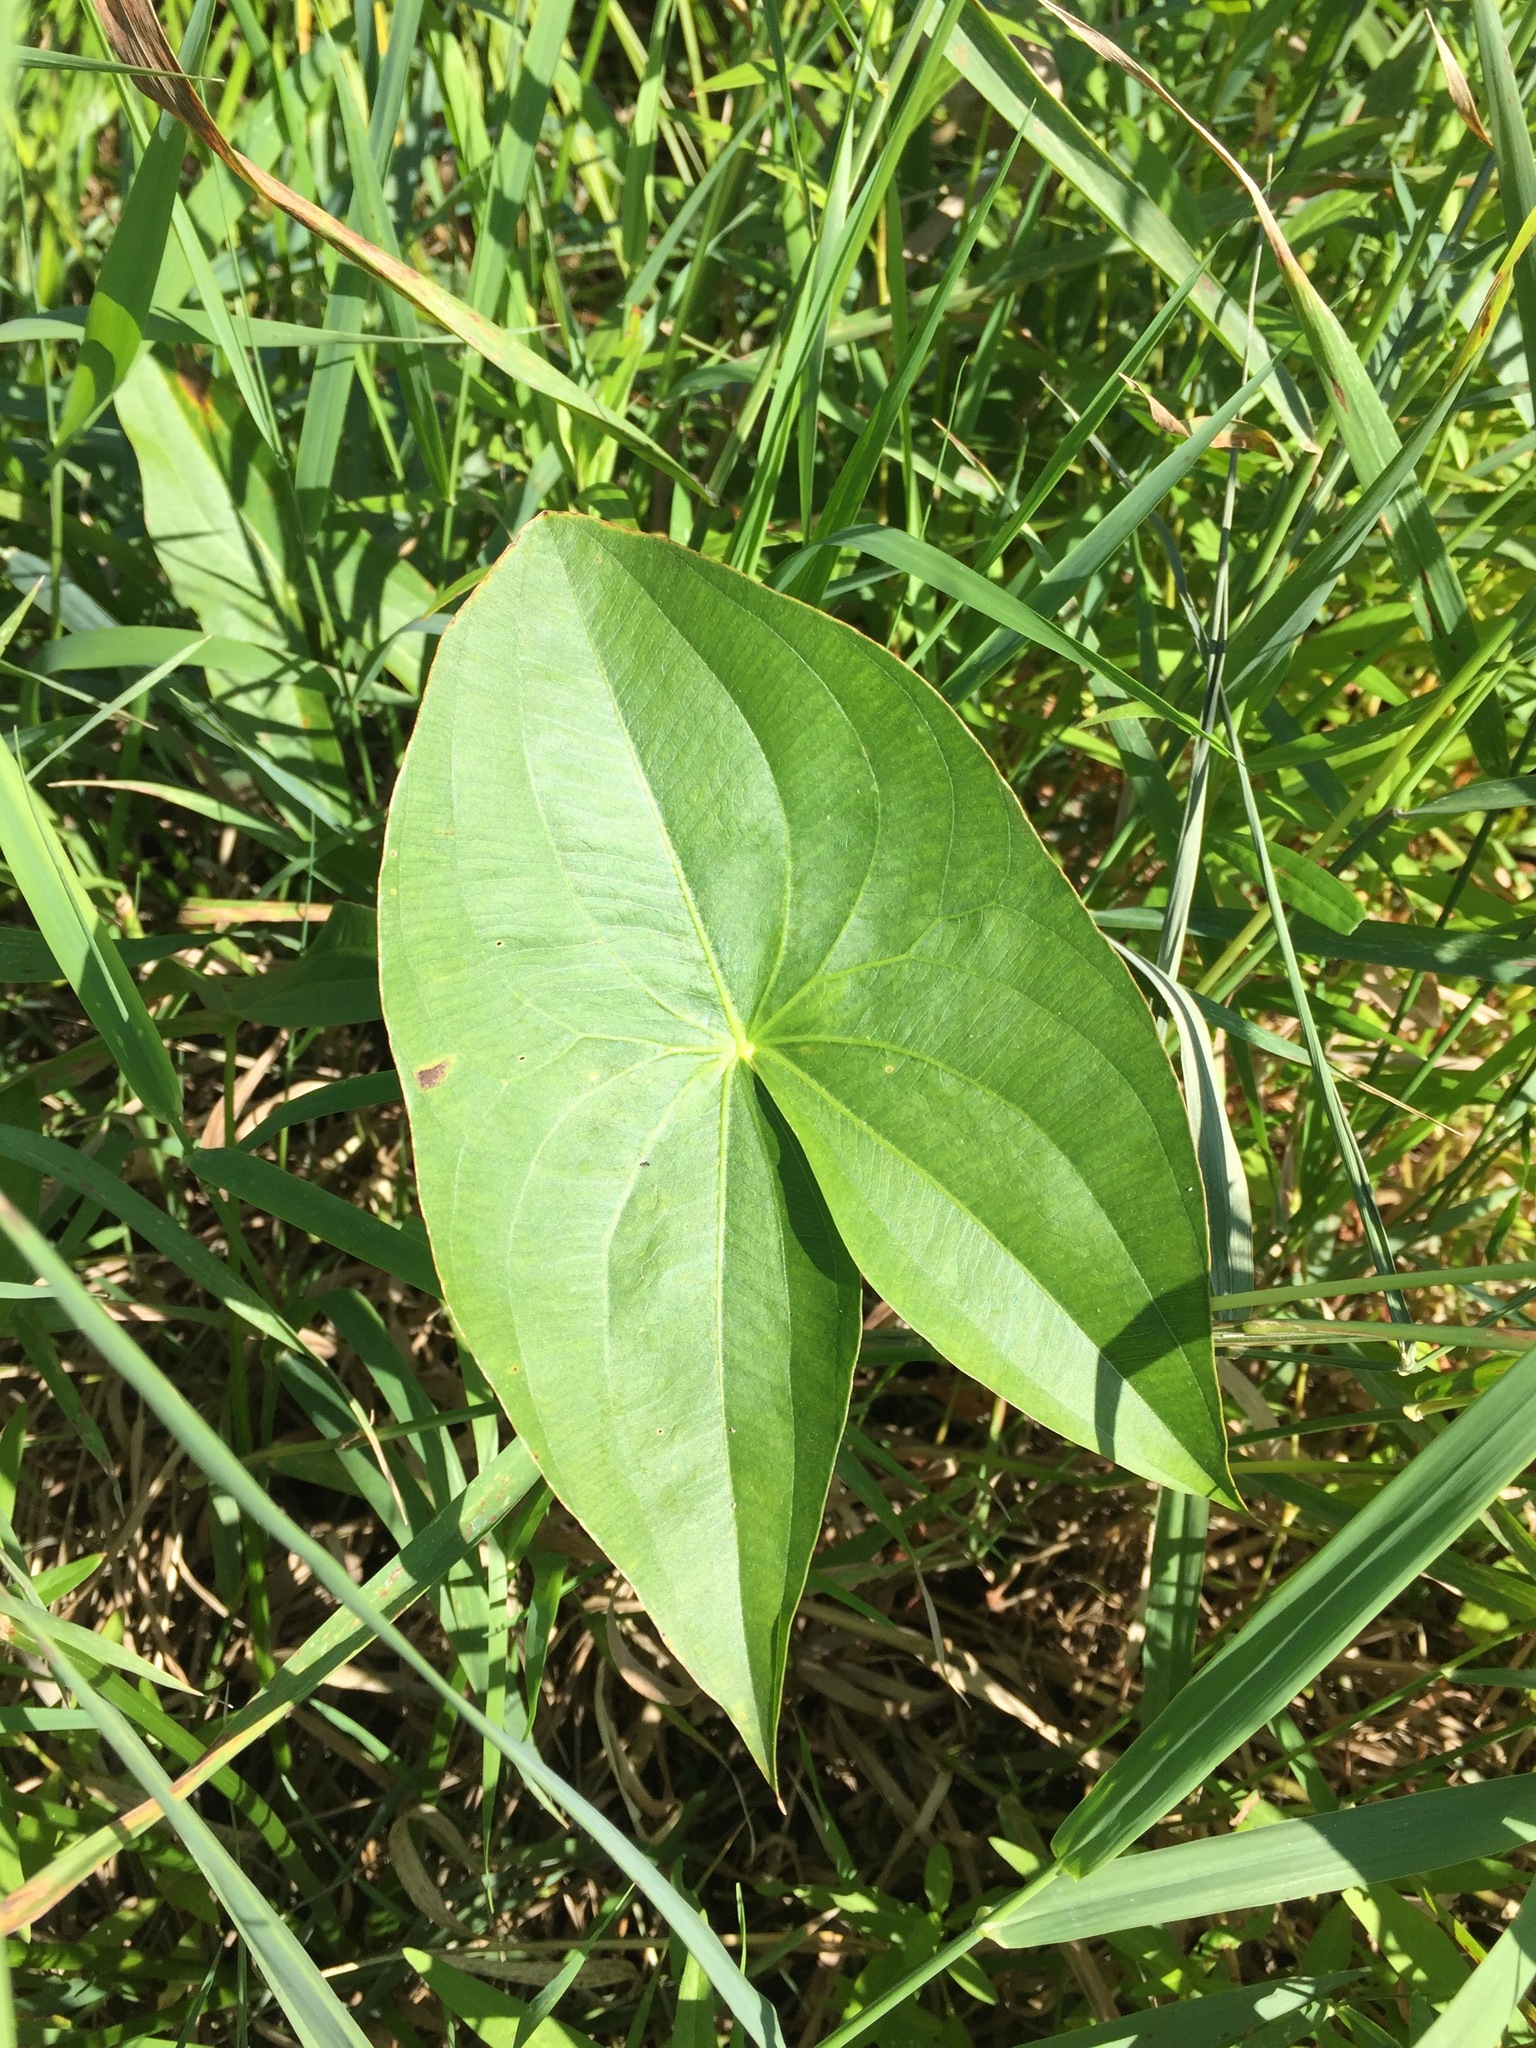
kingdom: Plantae
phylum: Tracheophyta
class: Liliopsida
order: Alismatales
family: Alismataceae
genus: Sagittaria
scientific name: Sagittaria latifolia
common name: Duck-potato
